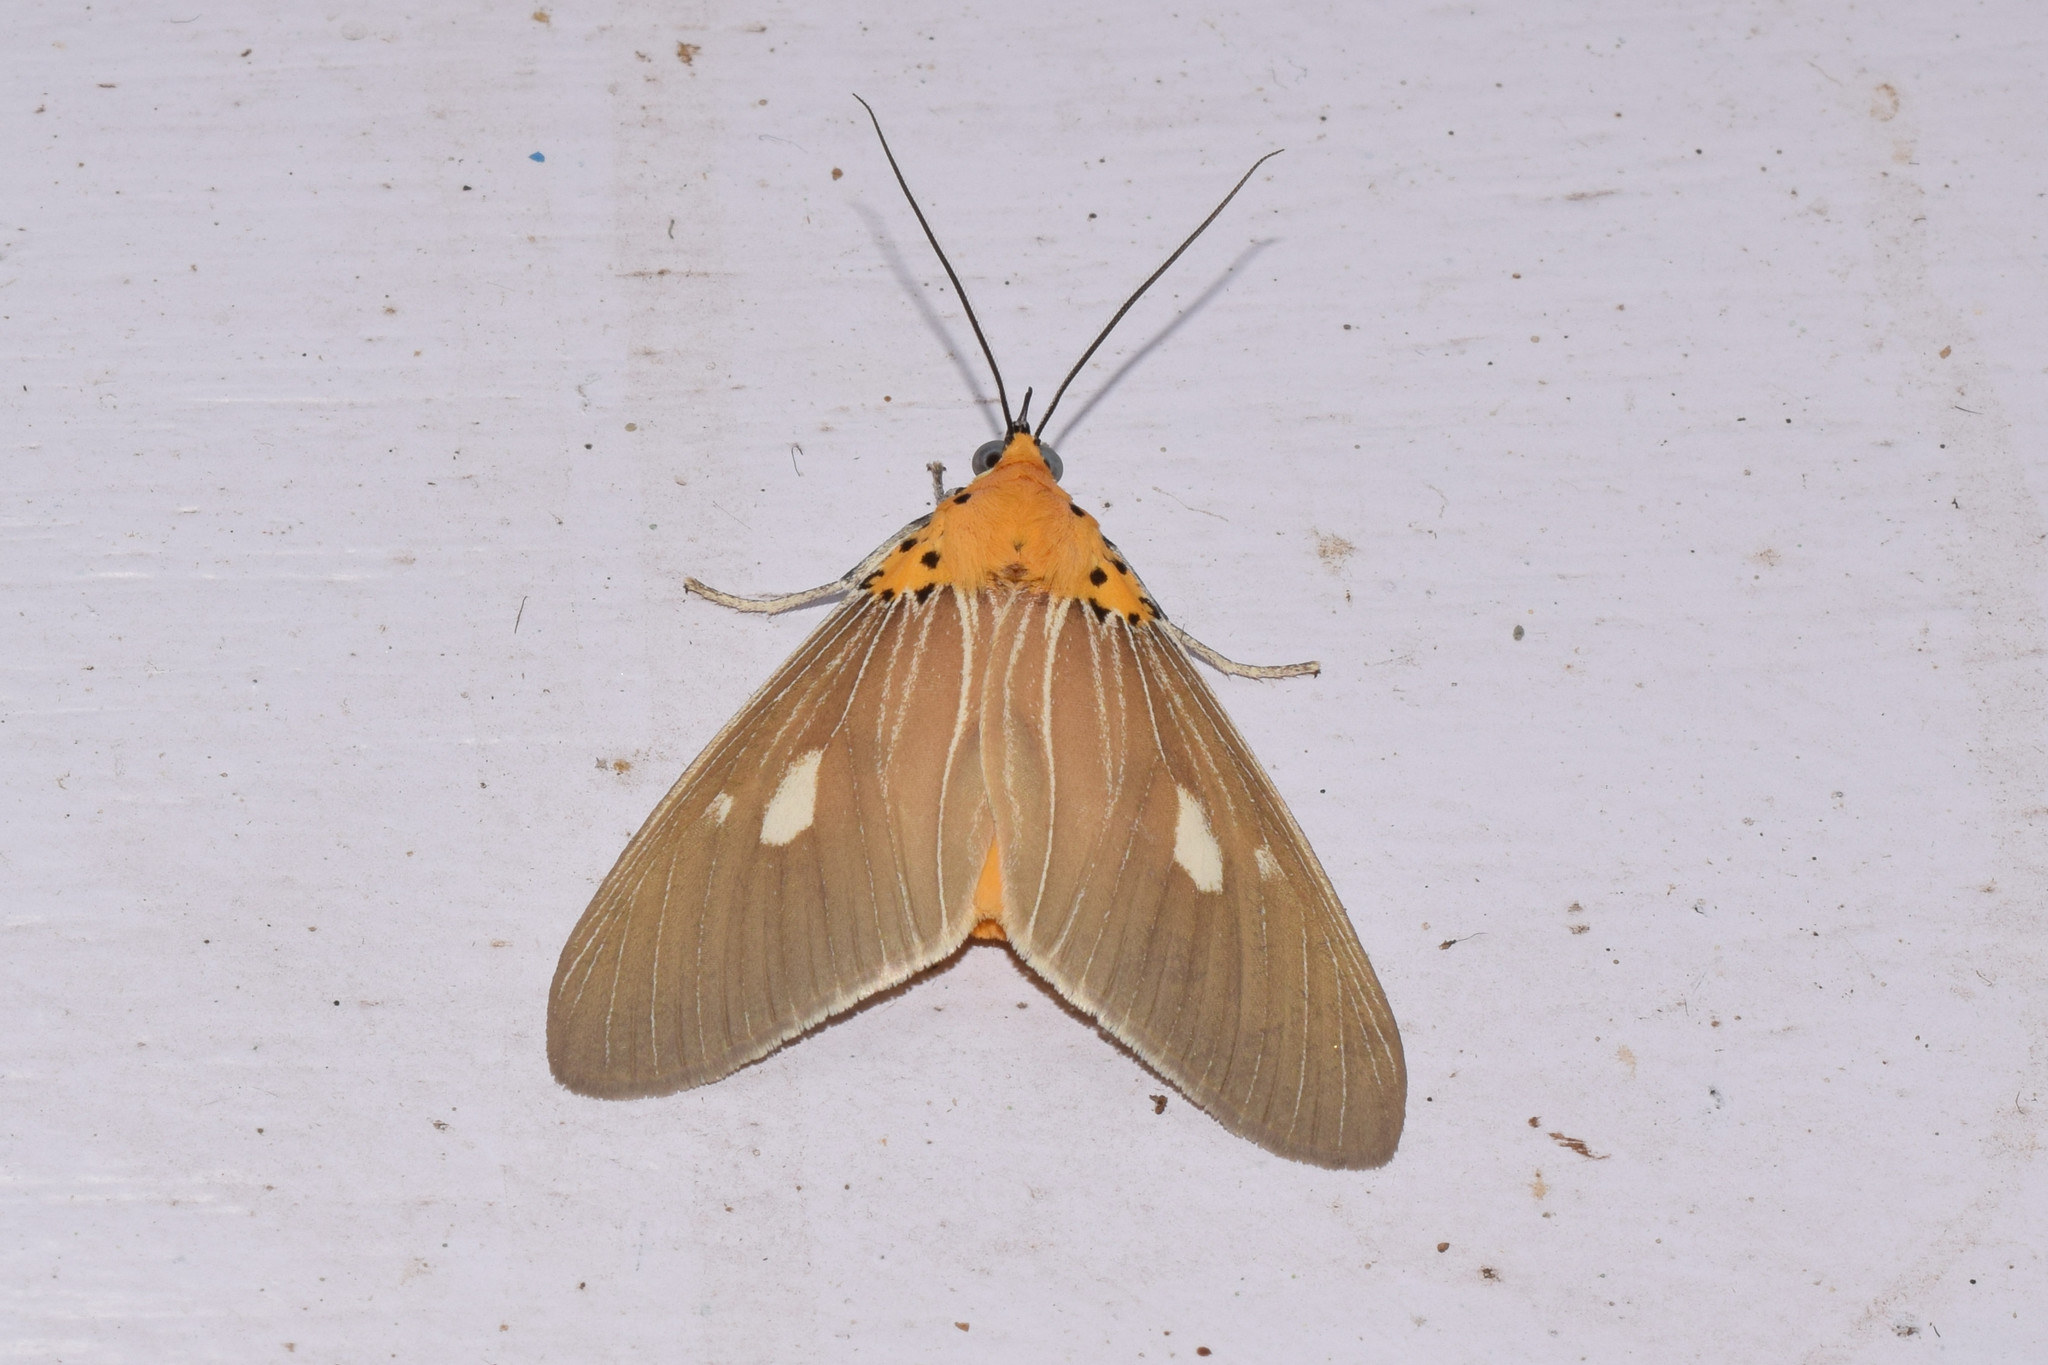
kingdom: Animalia
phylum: Arthropoda
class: Insecta
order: Lepidoptera
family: Erebidae
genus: Asota
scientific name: Asota plaginota
